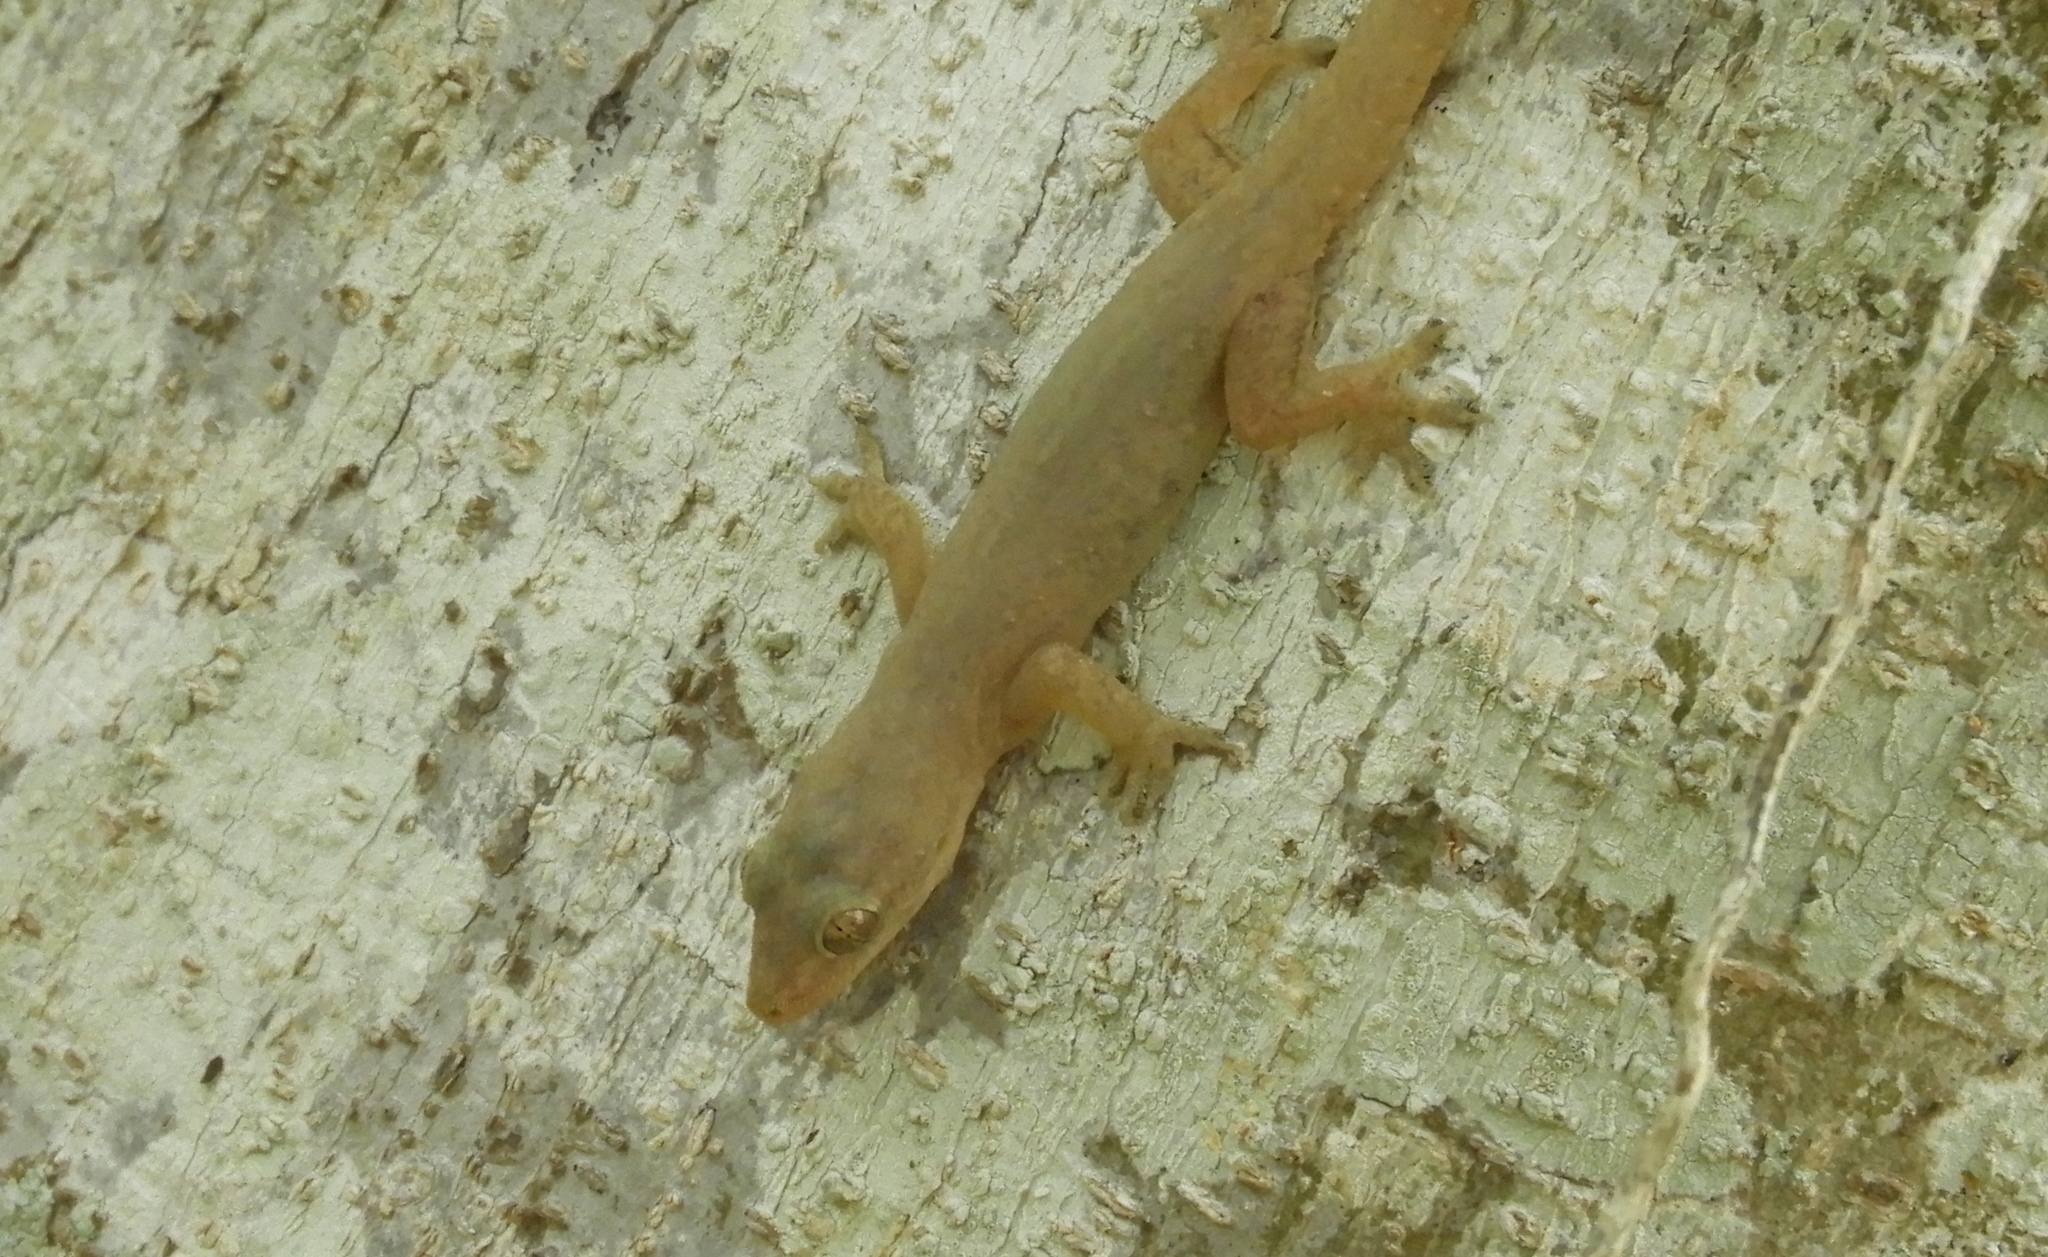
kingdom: Animalia
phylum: Chordata
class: Squamata
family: Gekkonidae
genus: Hemidactylus
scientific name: Hemidactylus frenatus
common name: Common house gecko
